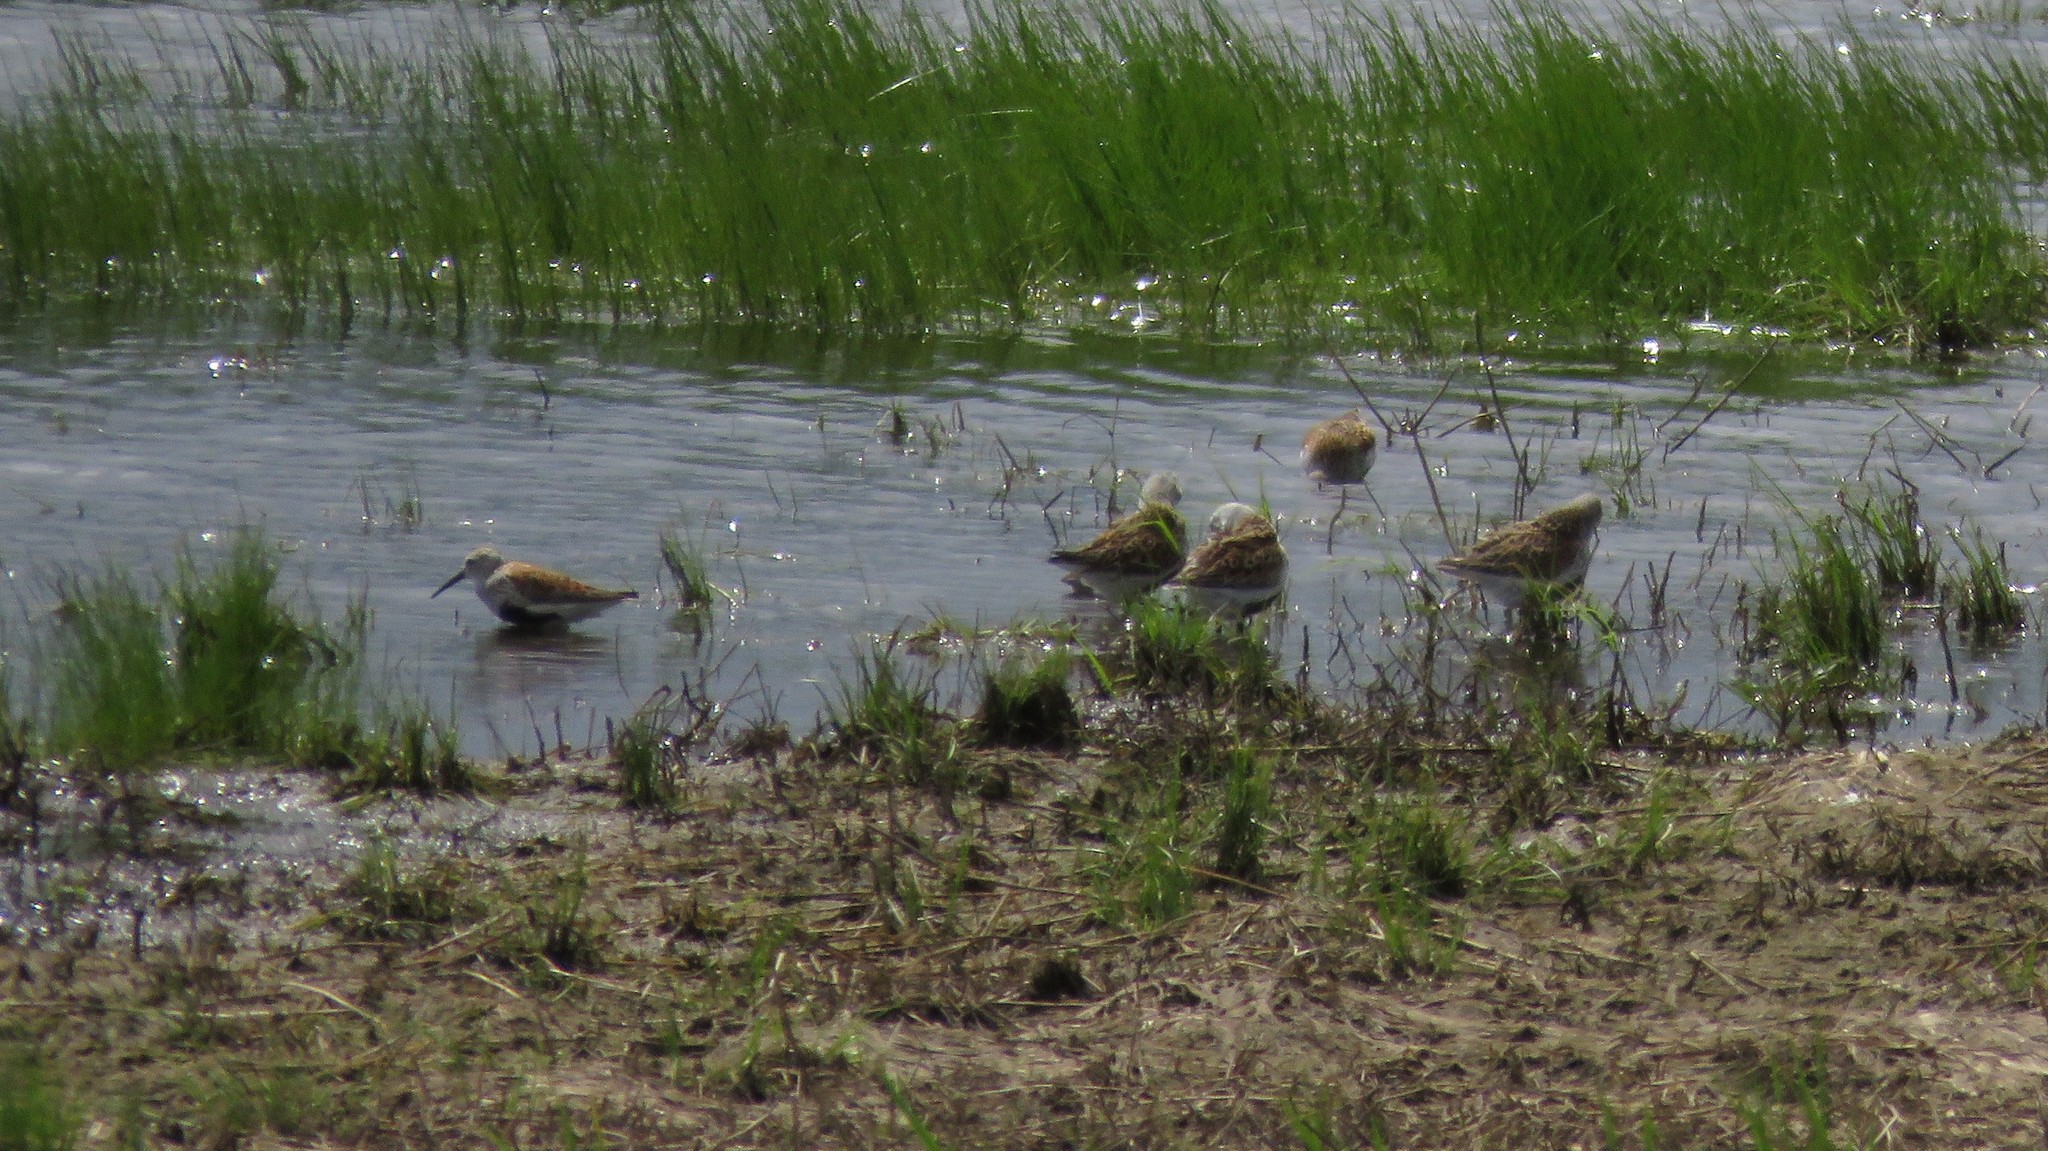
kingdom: Animalia
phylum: Chordata
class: Aves
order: Charadriiformes
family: Scolopacidae
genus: Calidris
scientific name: Calidris alpina
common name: Dunlin
